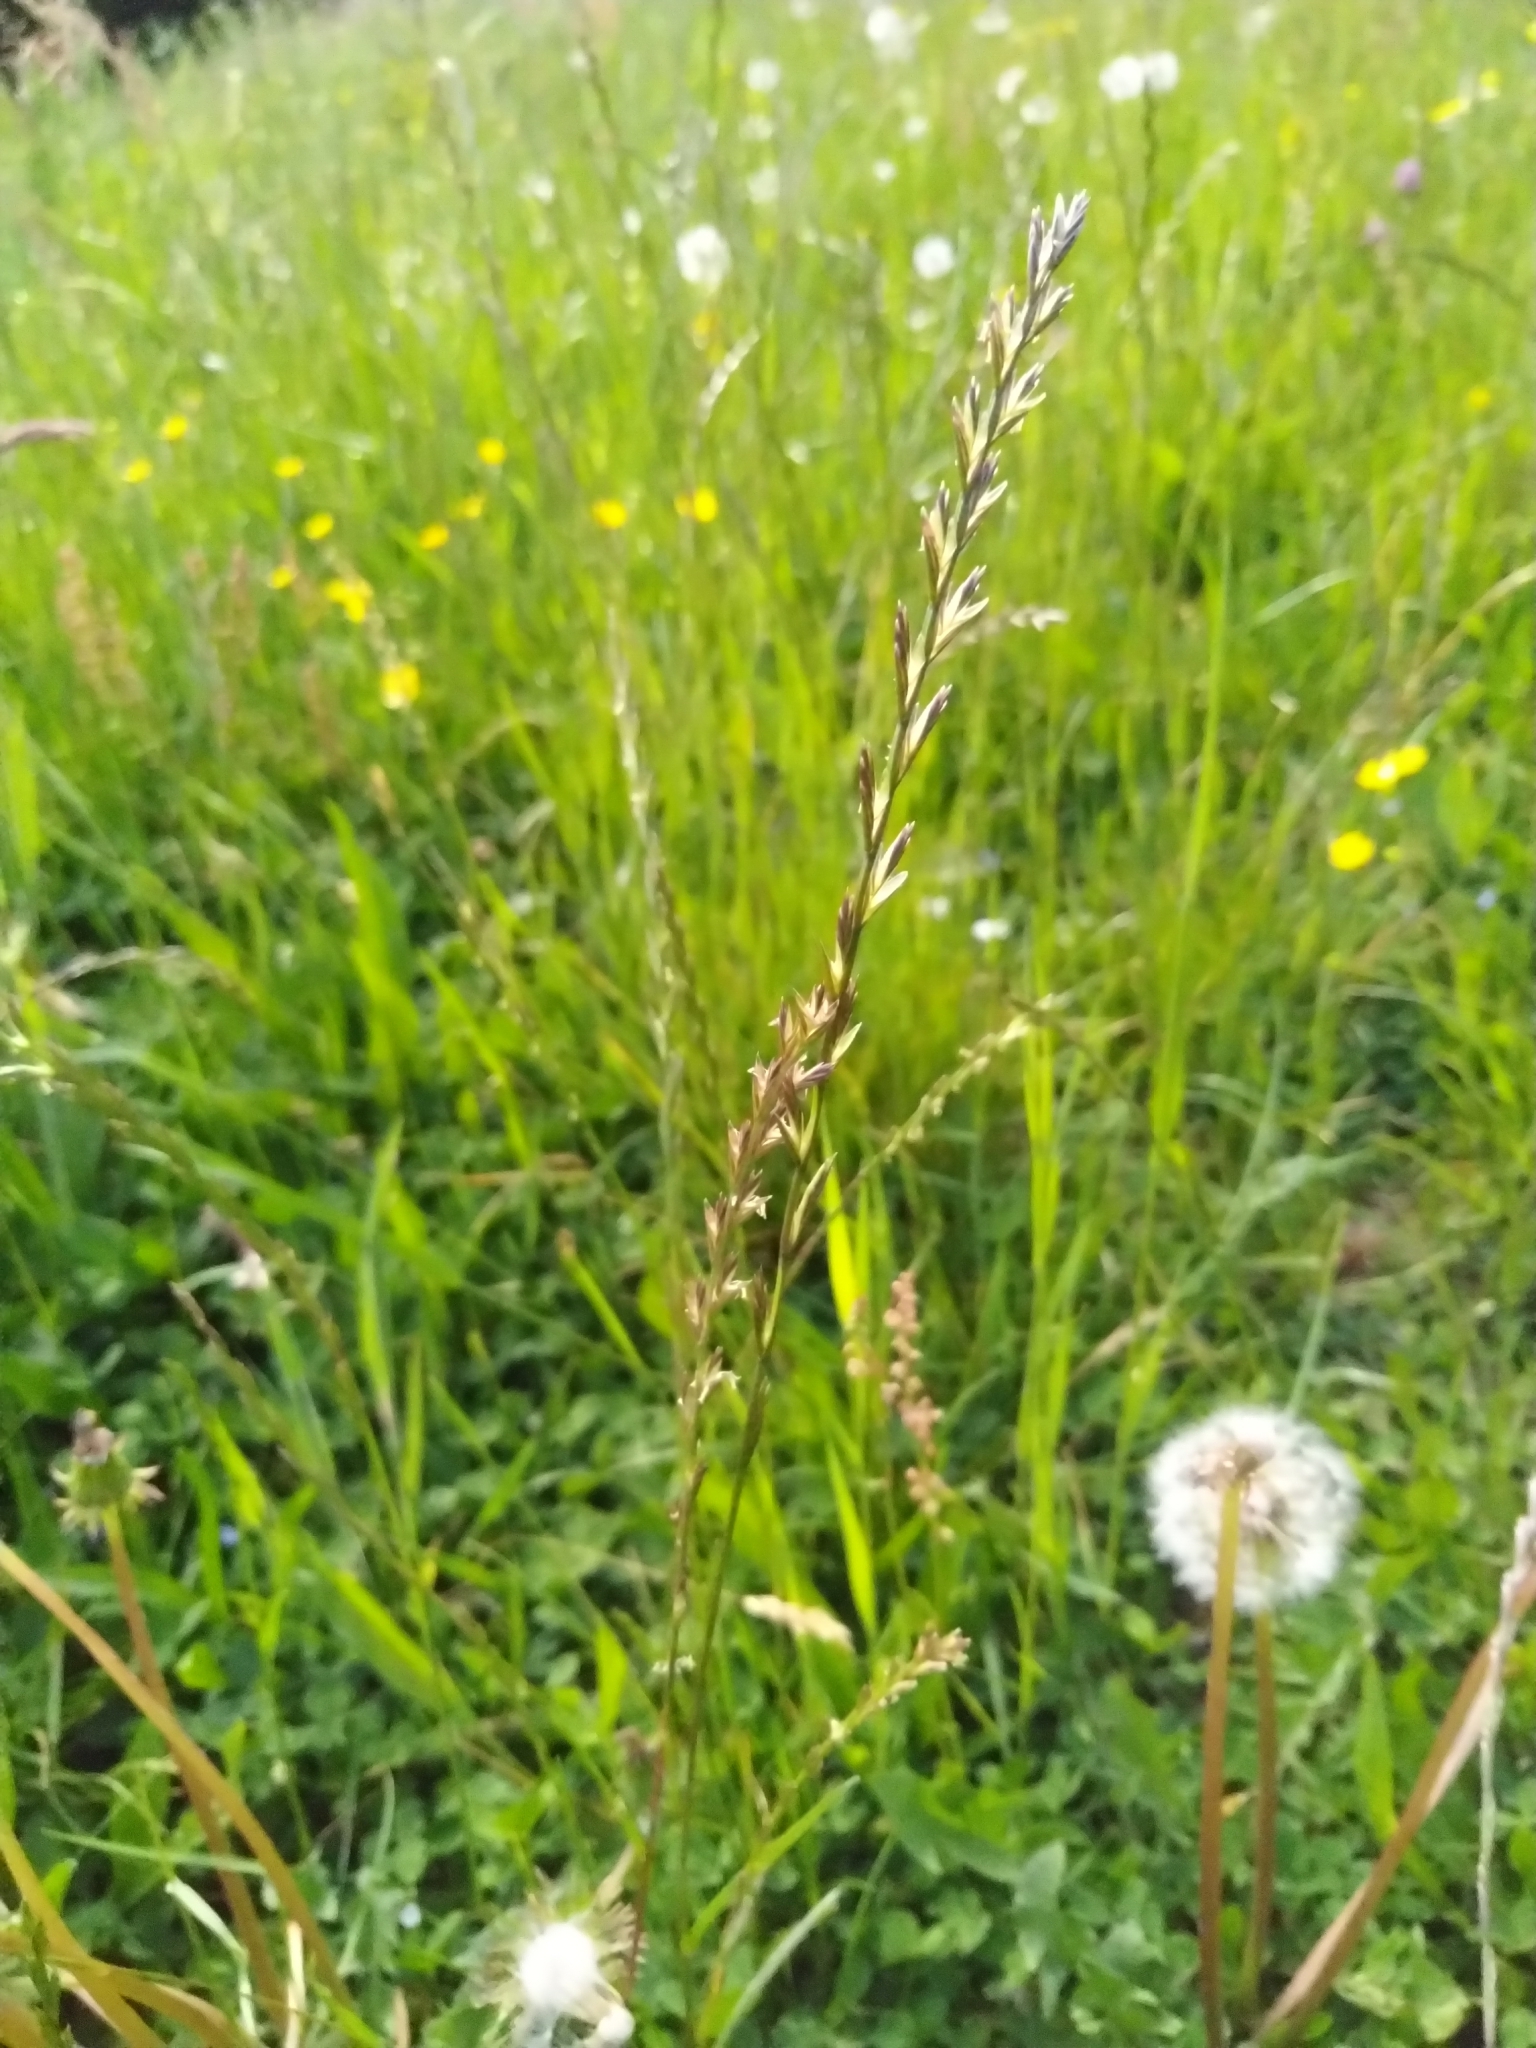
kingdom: Plantae
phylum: Tracheophyta
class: Liliopsida
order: Poales
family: Poaceae
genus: Lolium
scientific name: Lolium perenne
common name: Perennial ryegrass
